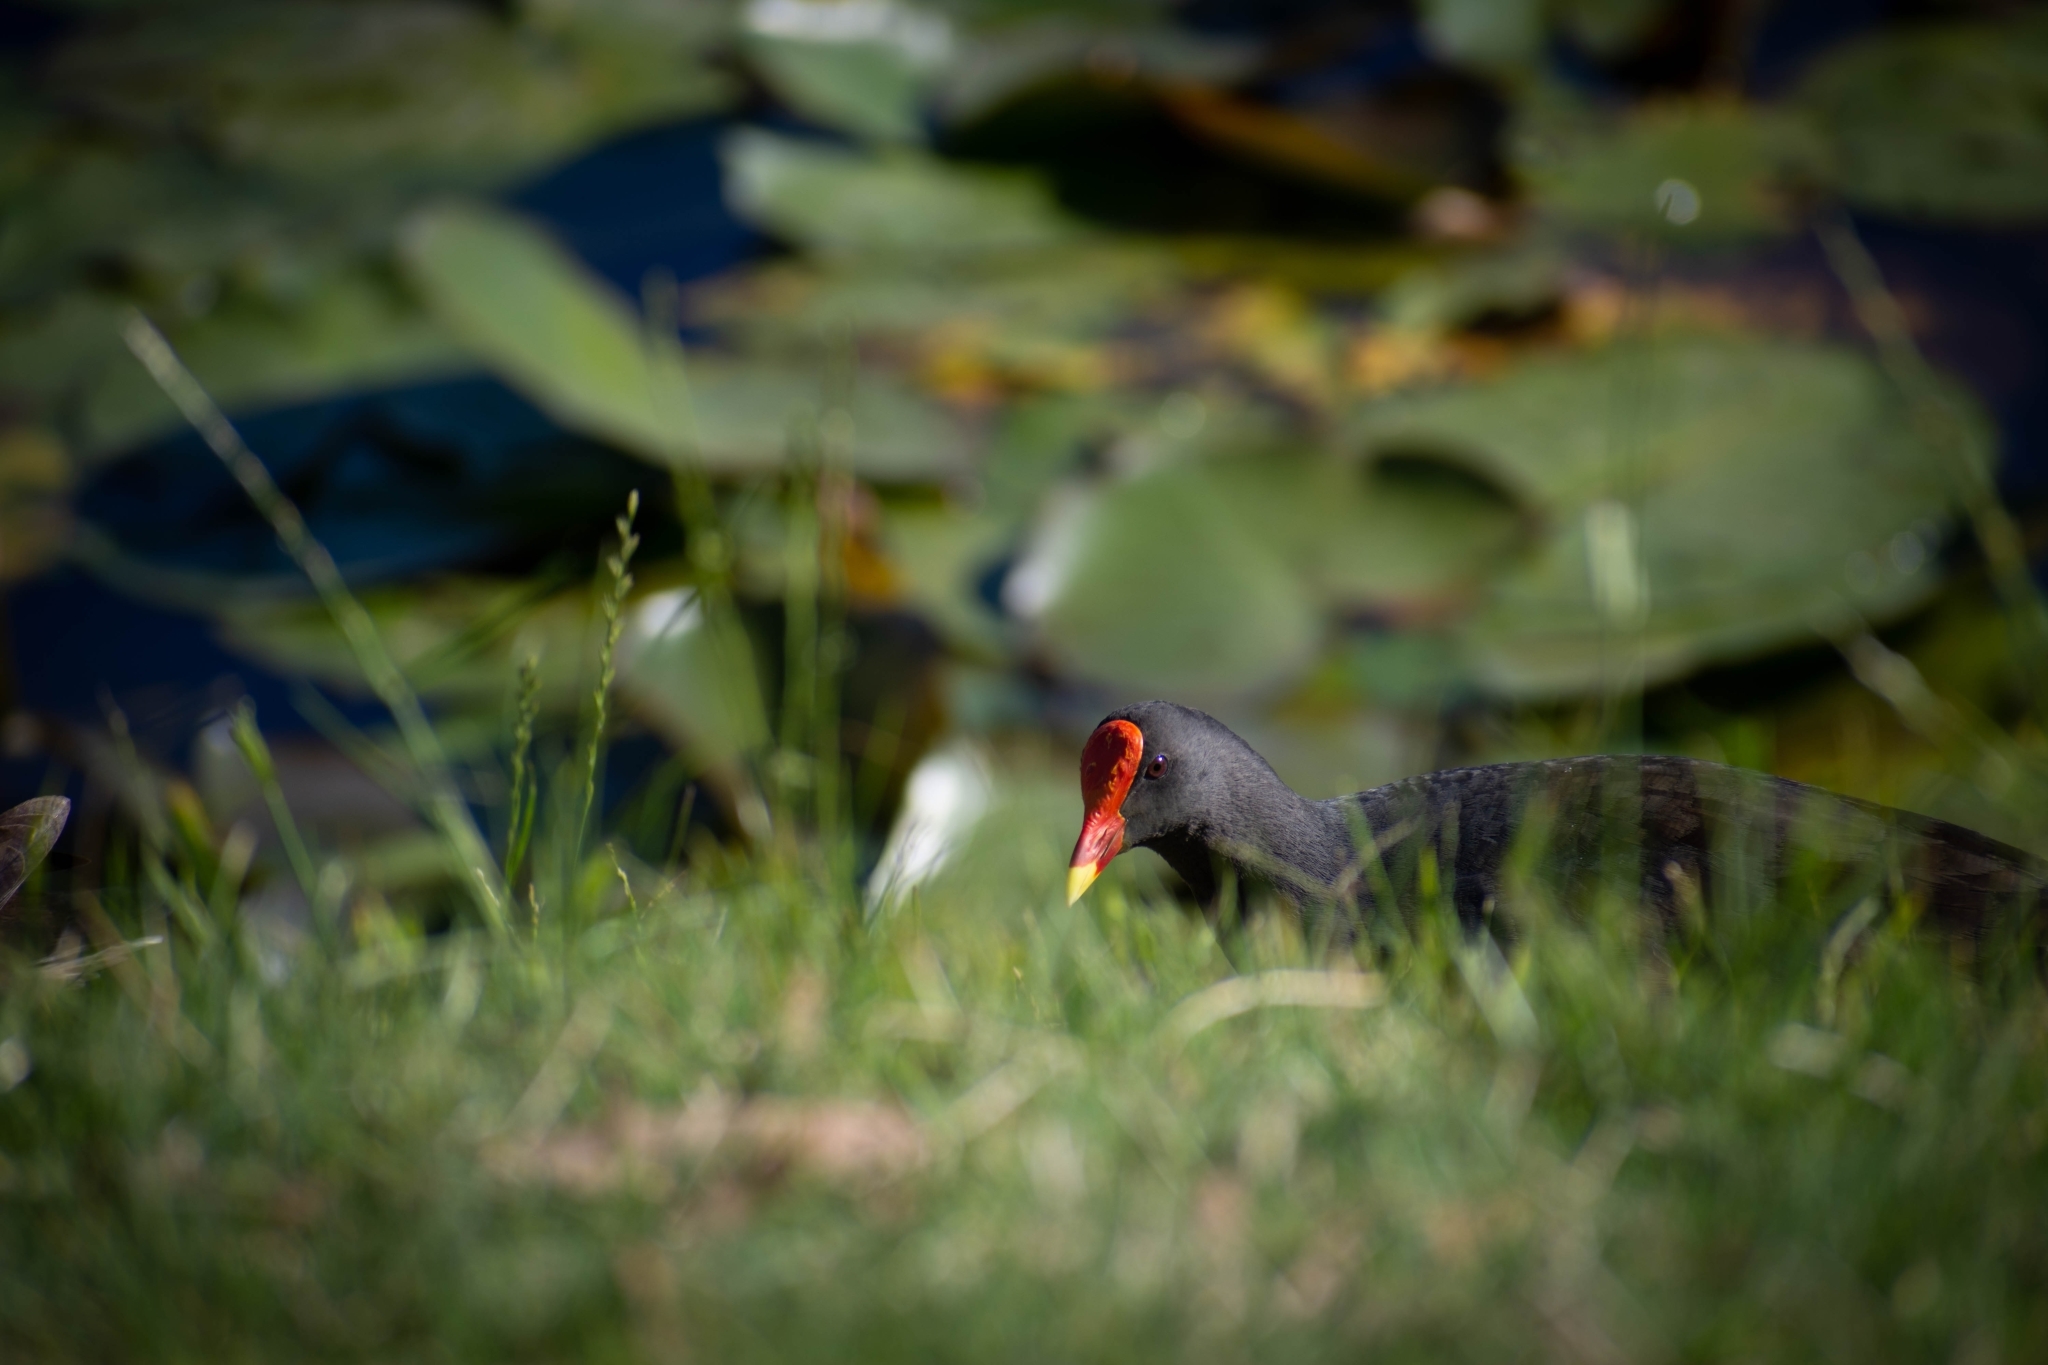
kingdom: Animalia
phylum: Chordata
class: Aves
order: Gruiformes
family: Rallidae
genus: Gallinula
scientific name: Gallinula tenebrosa
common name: Dusky moorhen
